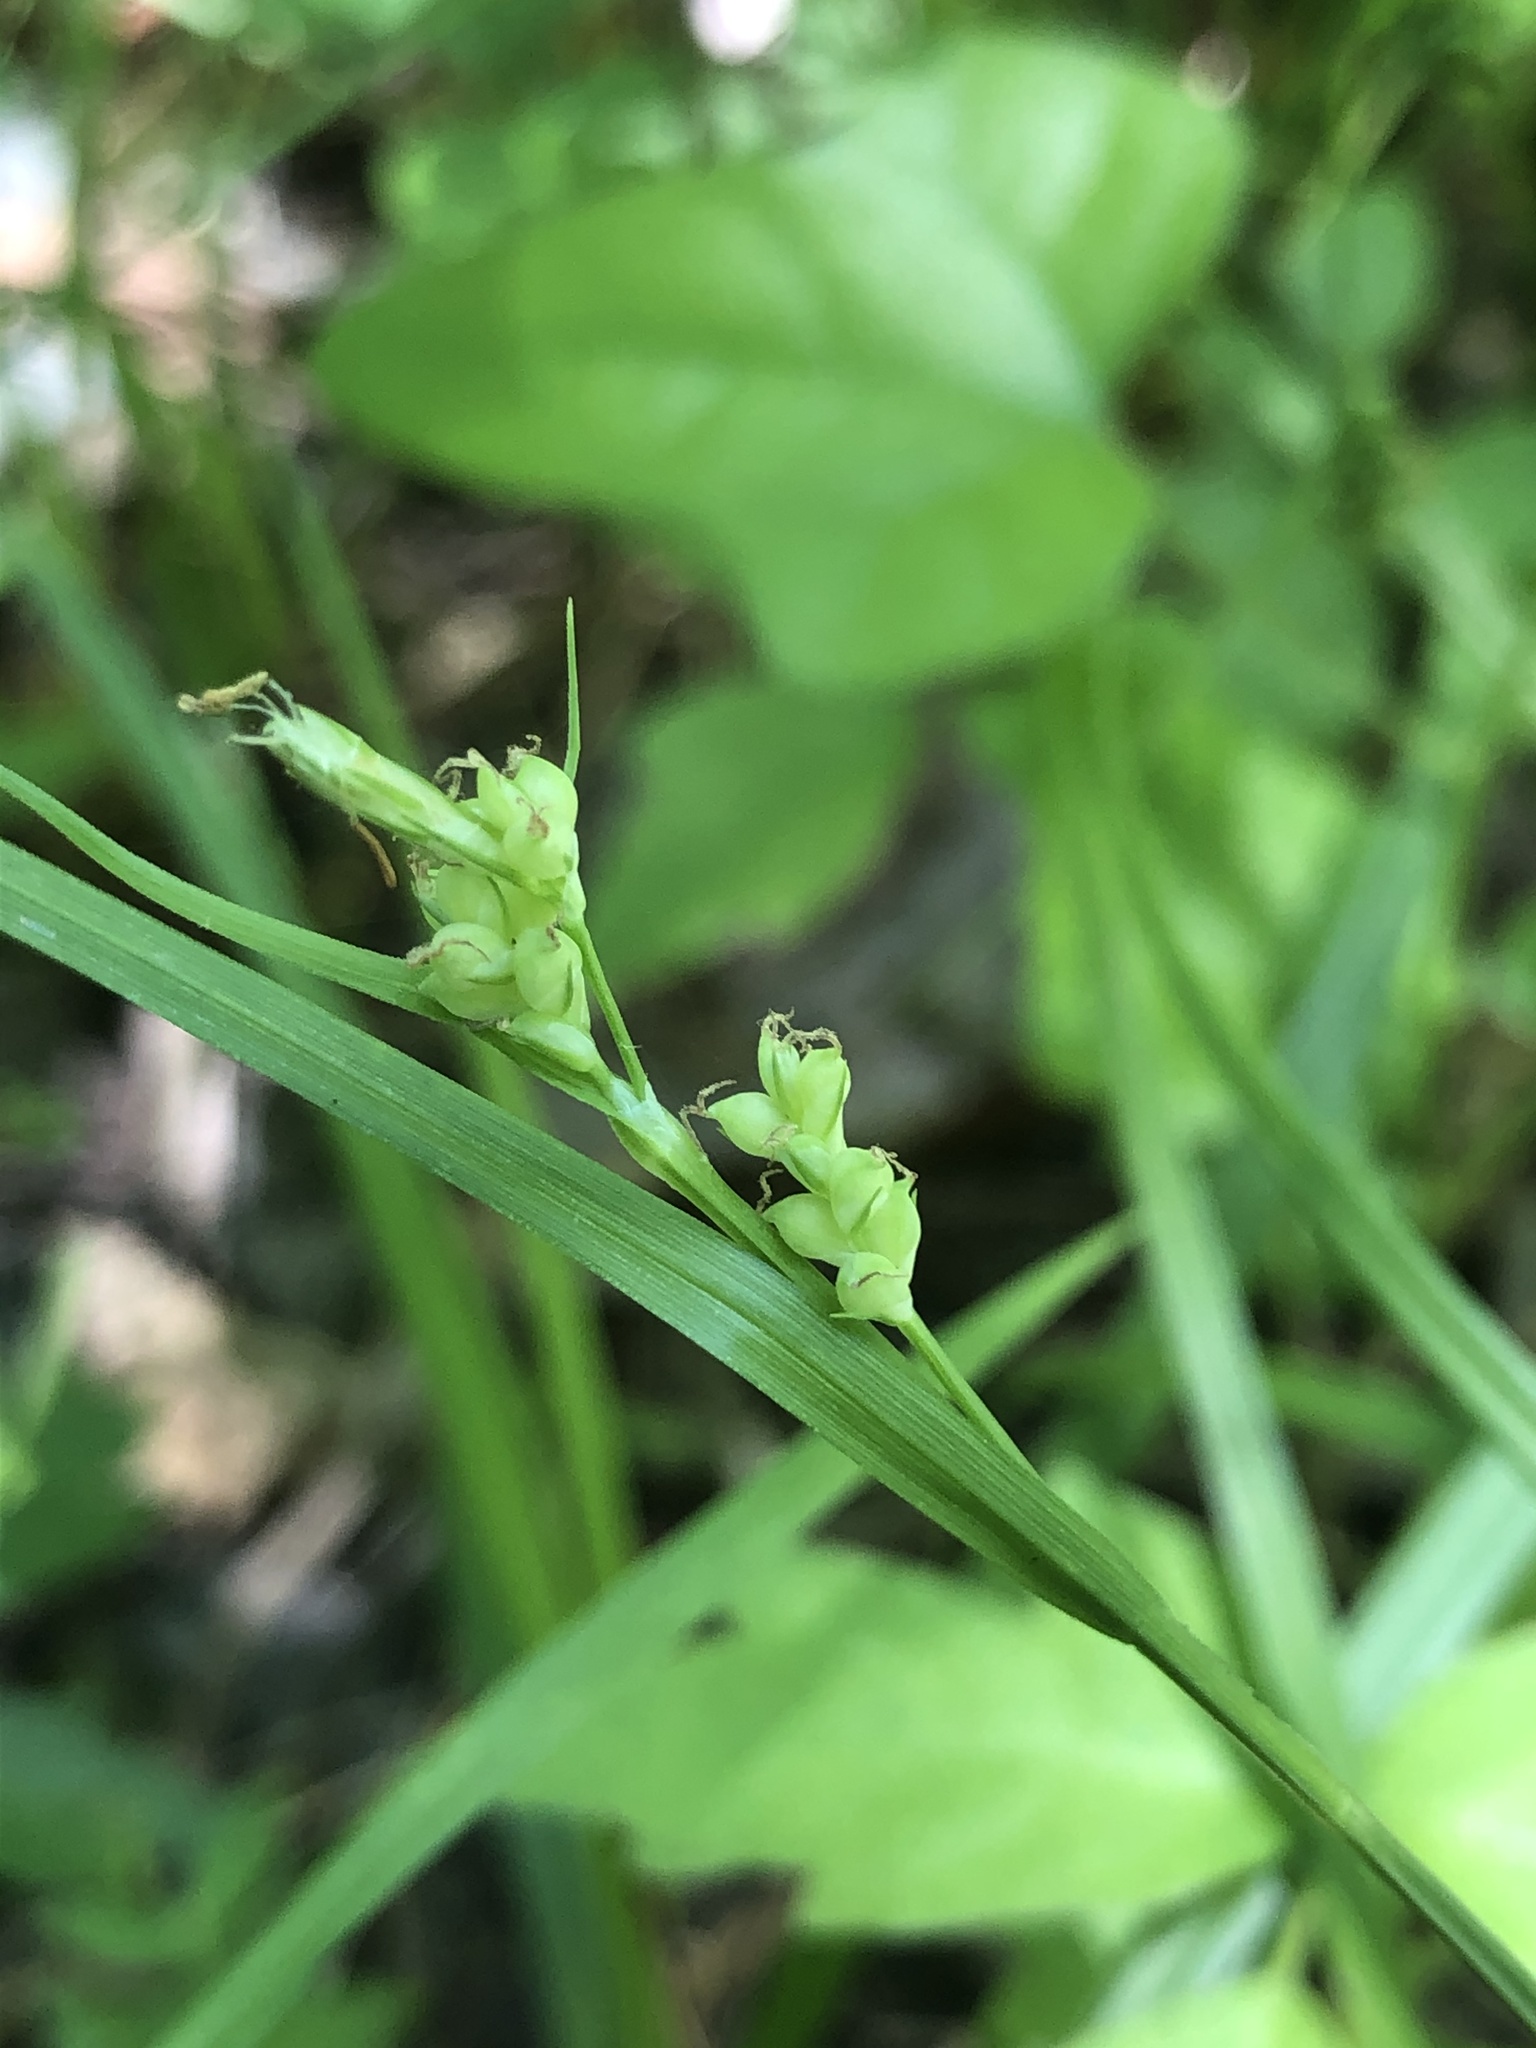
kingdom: Plantae
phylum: Tracheophyta
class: Liliopsida
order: Poales
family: Cyperaceae
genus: Carex
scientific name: Carex blanda
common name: Bland sedge
